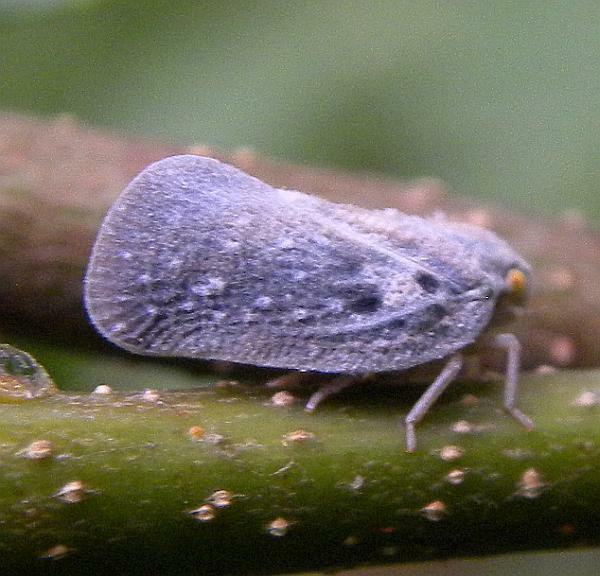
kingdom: Animalia
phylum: Arthropoda
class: Insecta
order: Hemiptera
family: Flatidae
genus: Metcalfa
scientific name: Metcalfa pruinosa
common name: Citrus flatid planthopper
